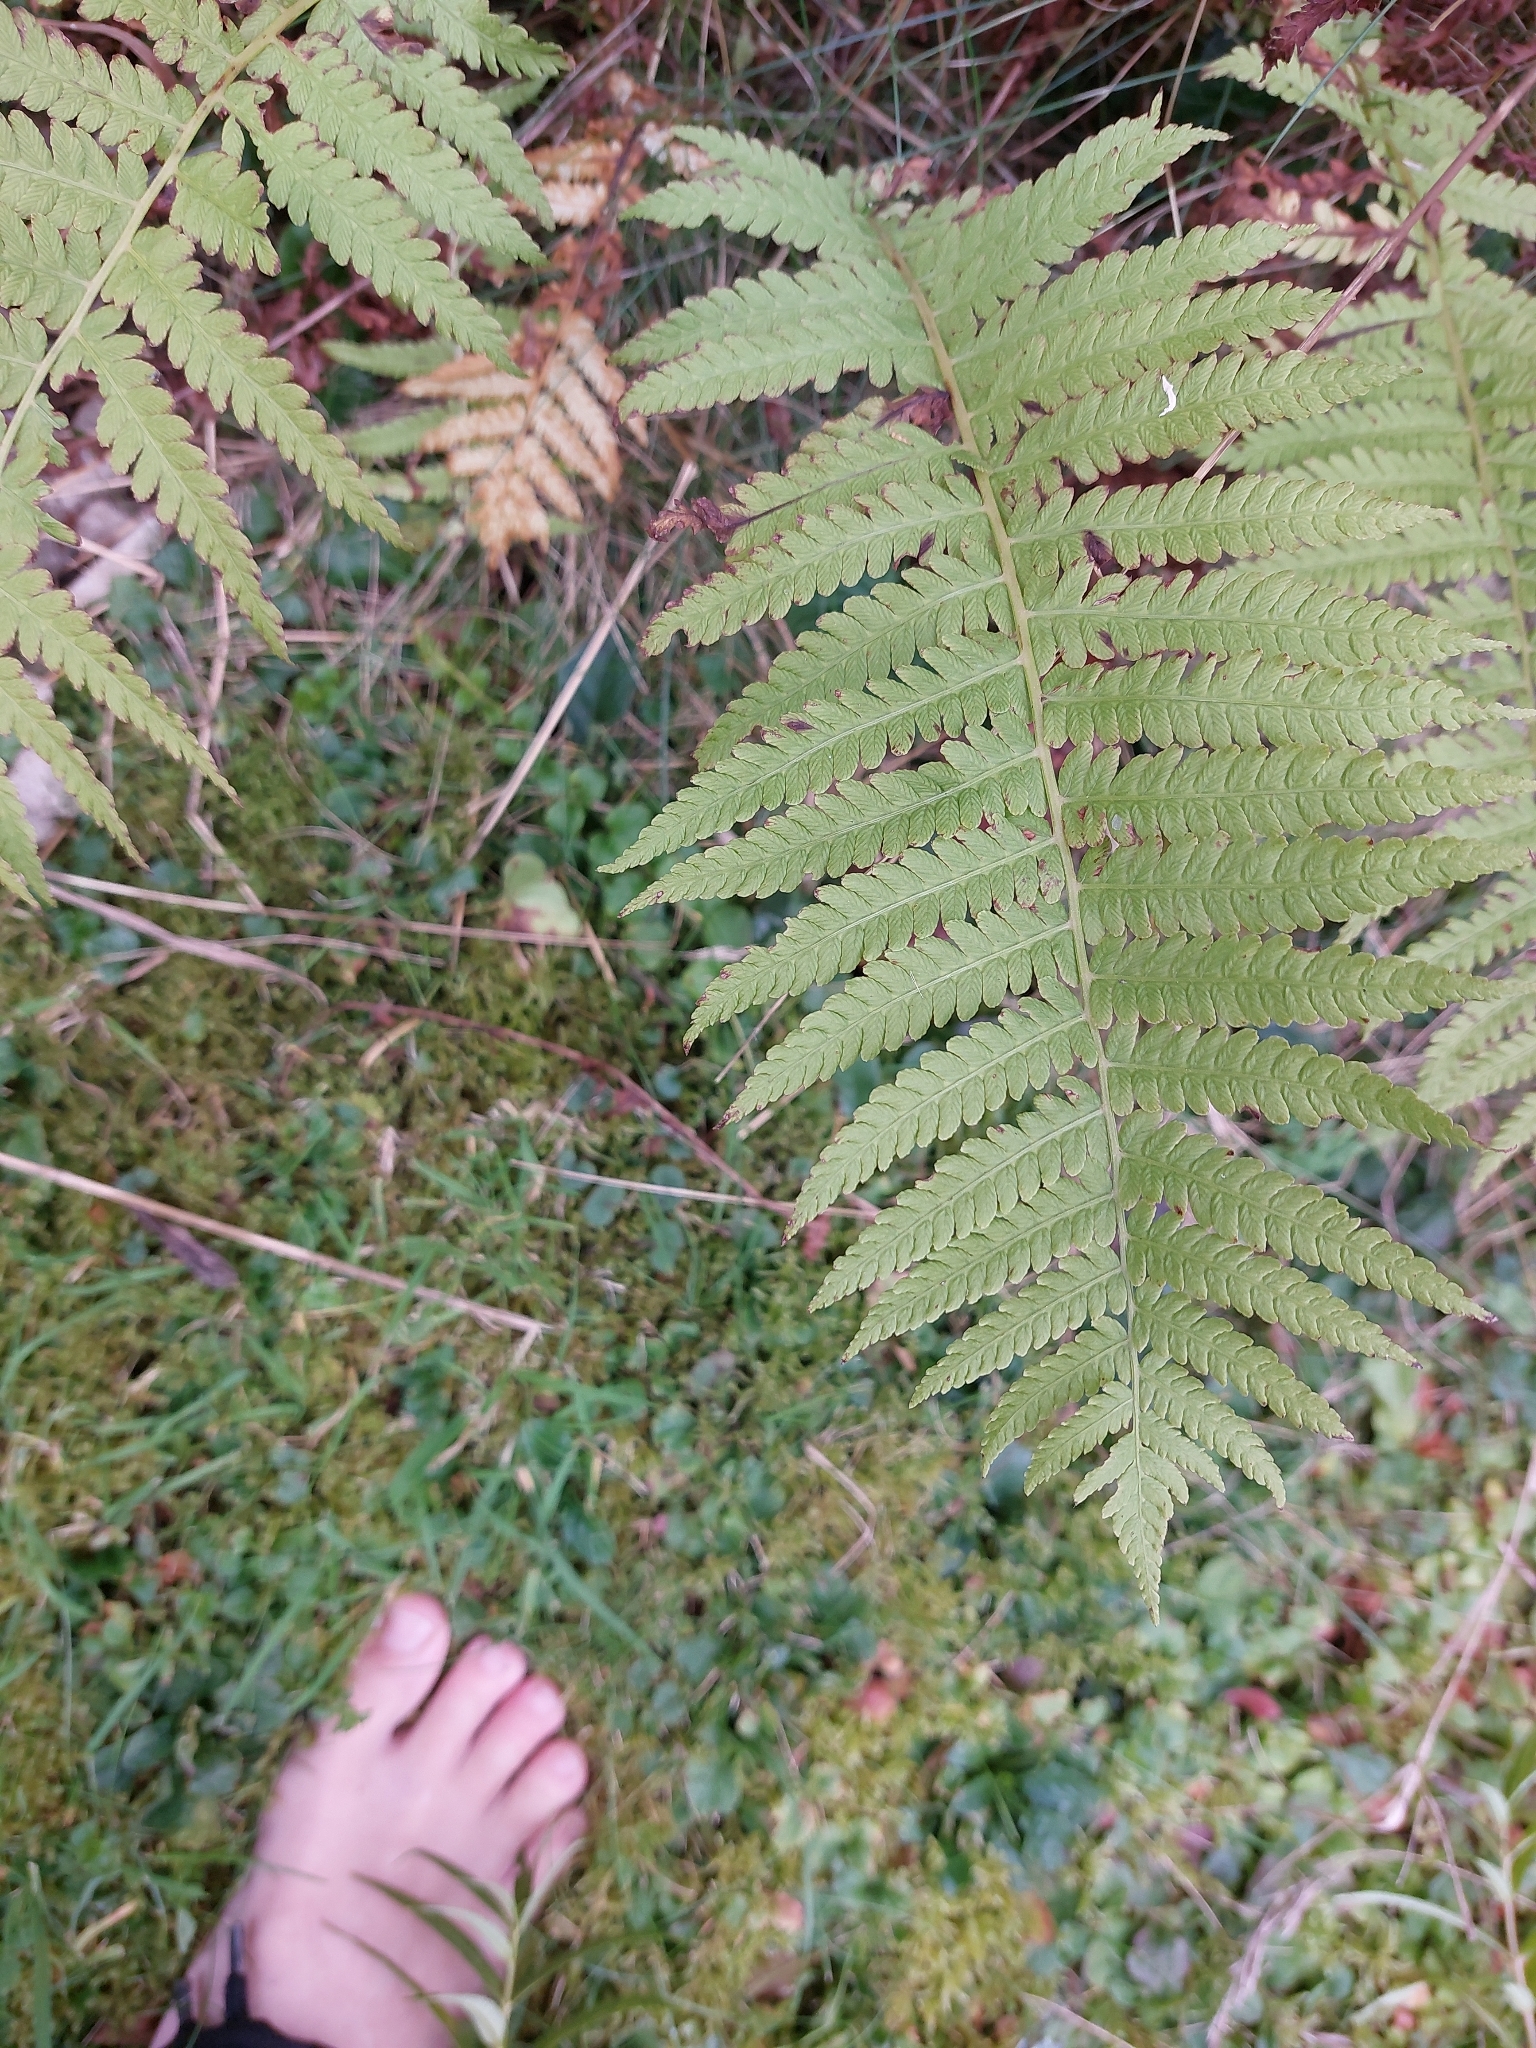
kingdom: Plantae
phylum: Tracheophyta
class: Polypodiopsida
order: Polypodiales
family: Thelypteridaceae
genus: Oreopteris
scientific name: Oreopteris limbosperma
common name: Lemon-scented fern
